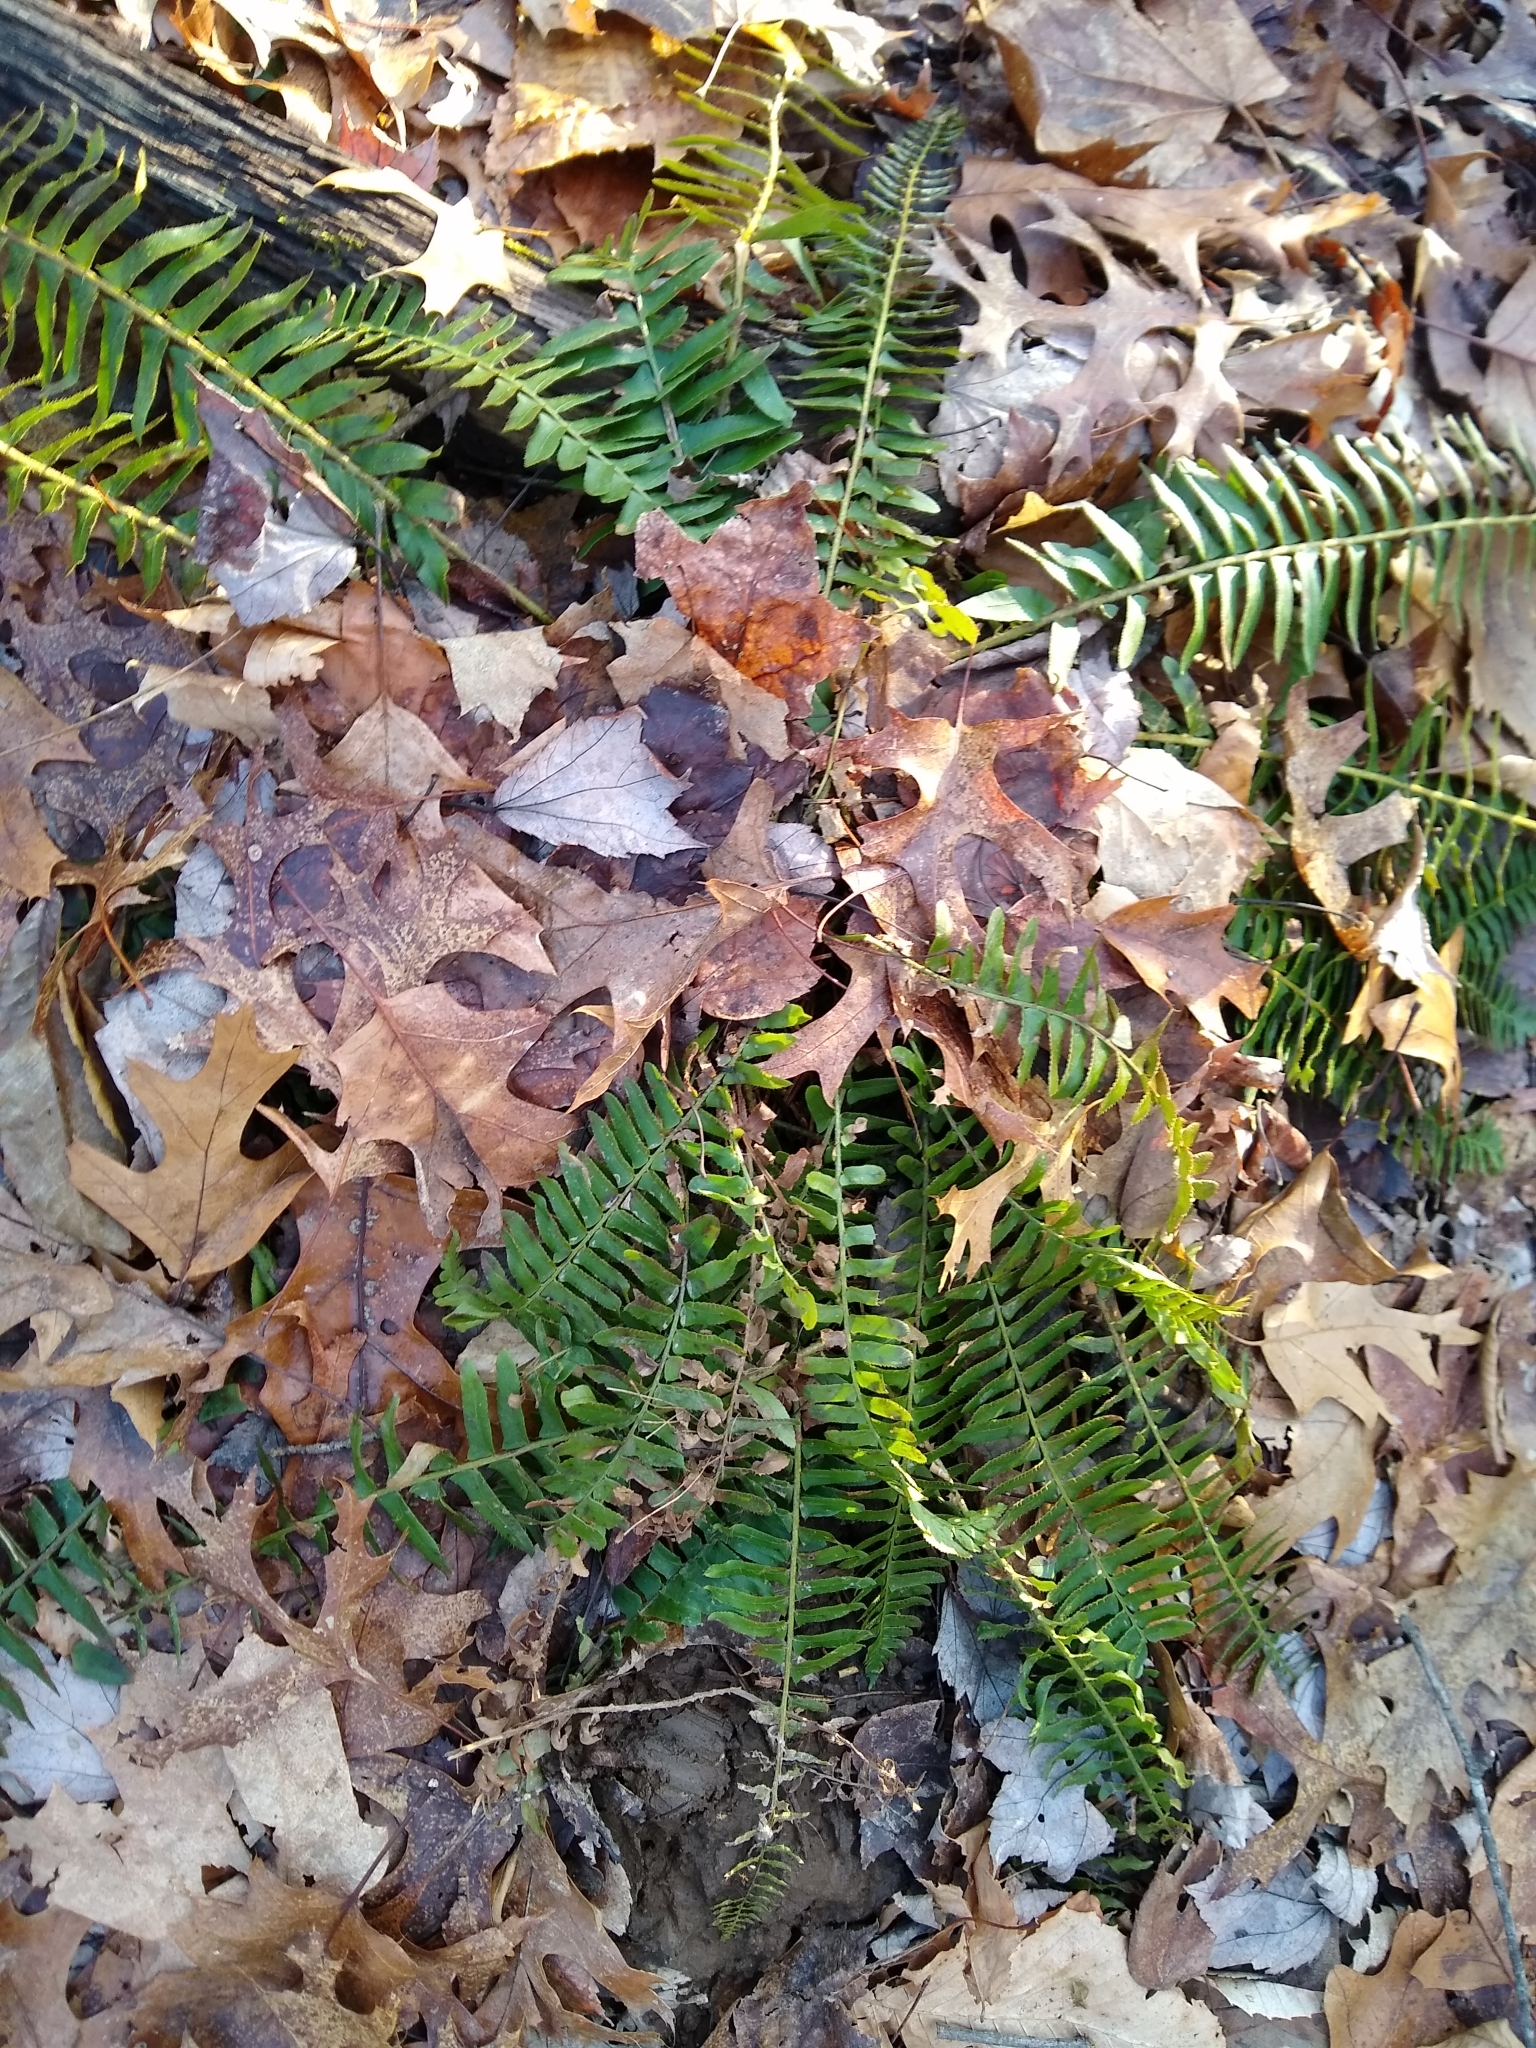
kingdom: Plantae
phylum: Tracheophyta
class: Polypodiopsida
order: Polypodiales
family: Dryopteridaceae
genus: Polystichum
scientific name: Polystichum acrostichoides
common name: Christmas fern
